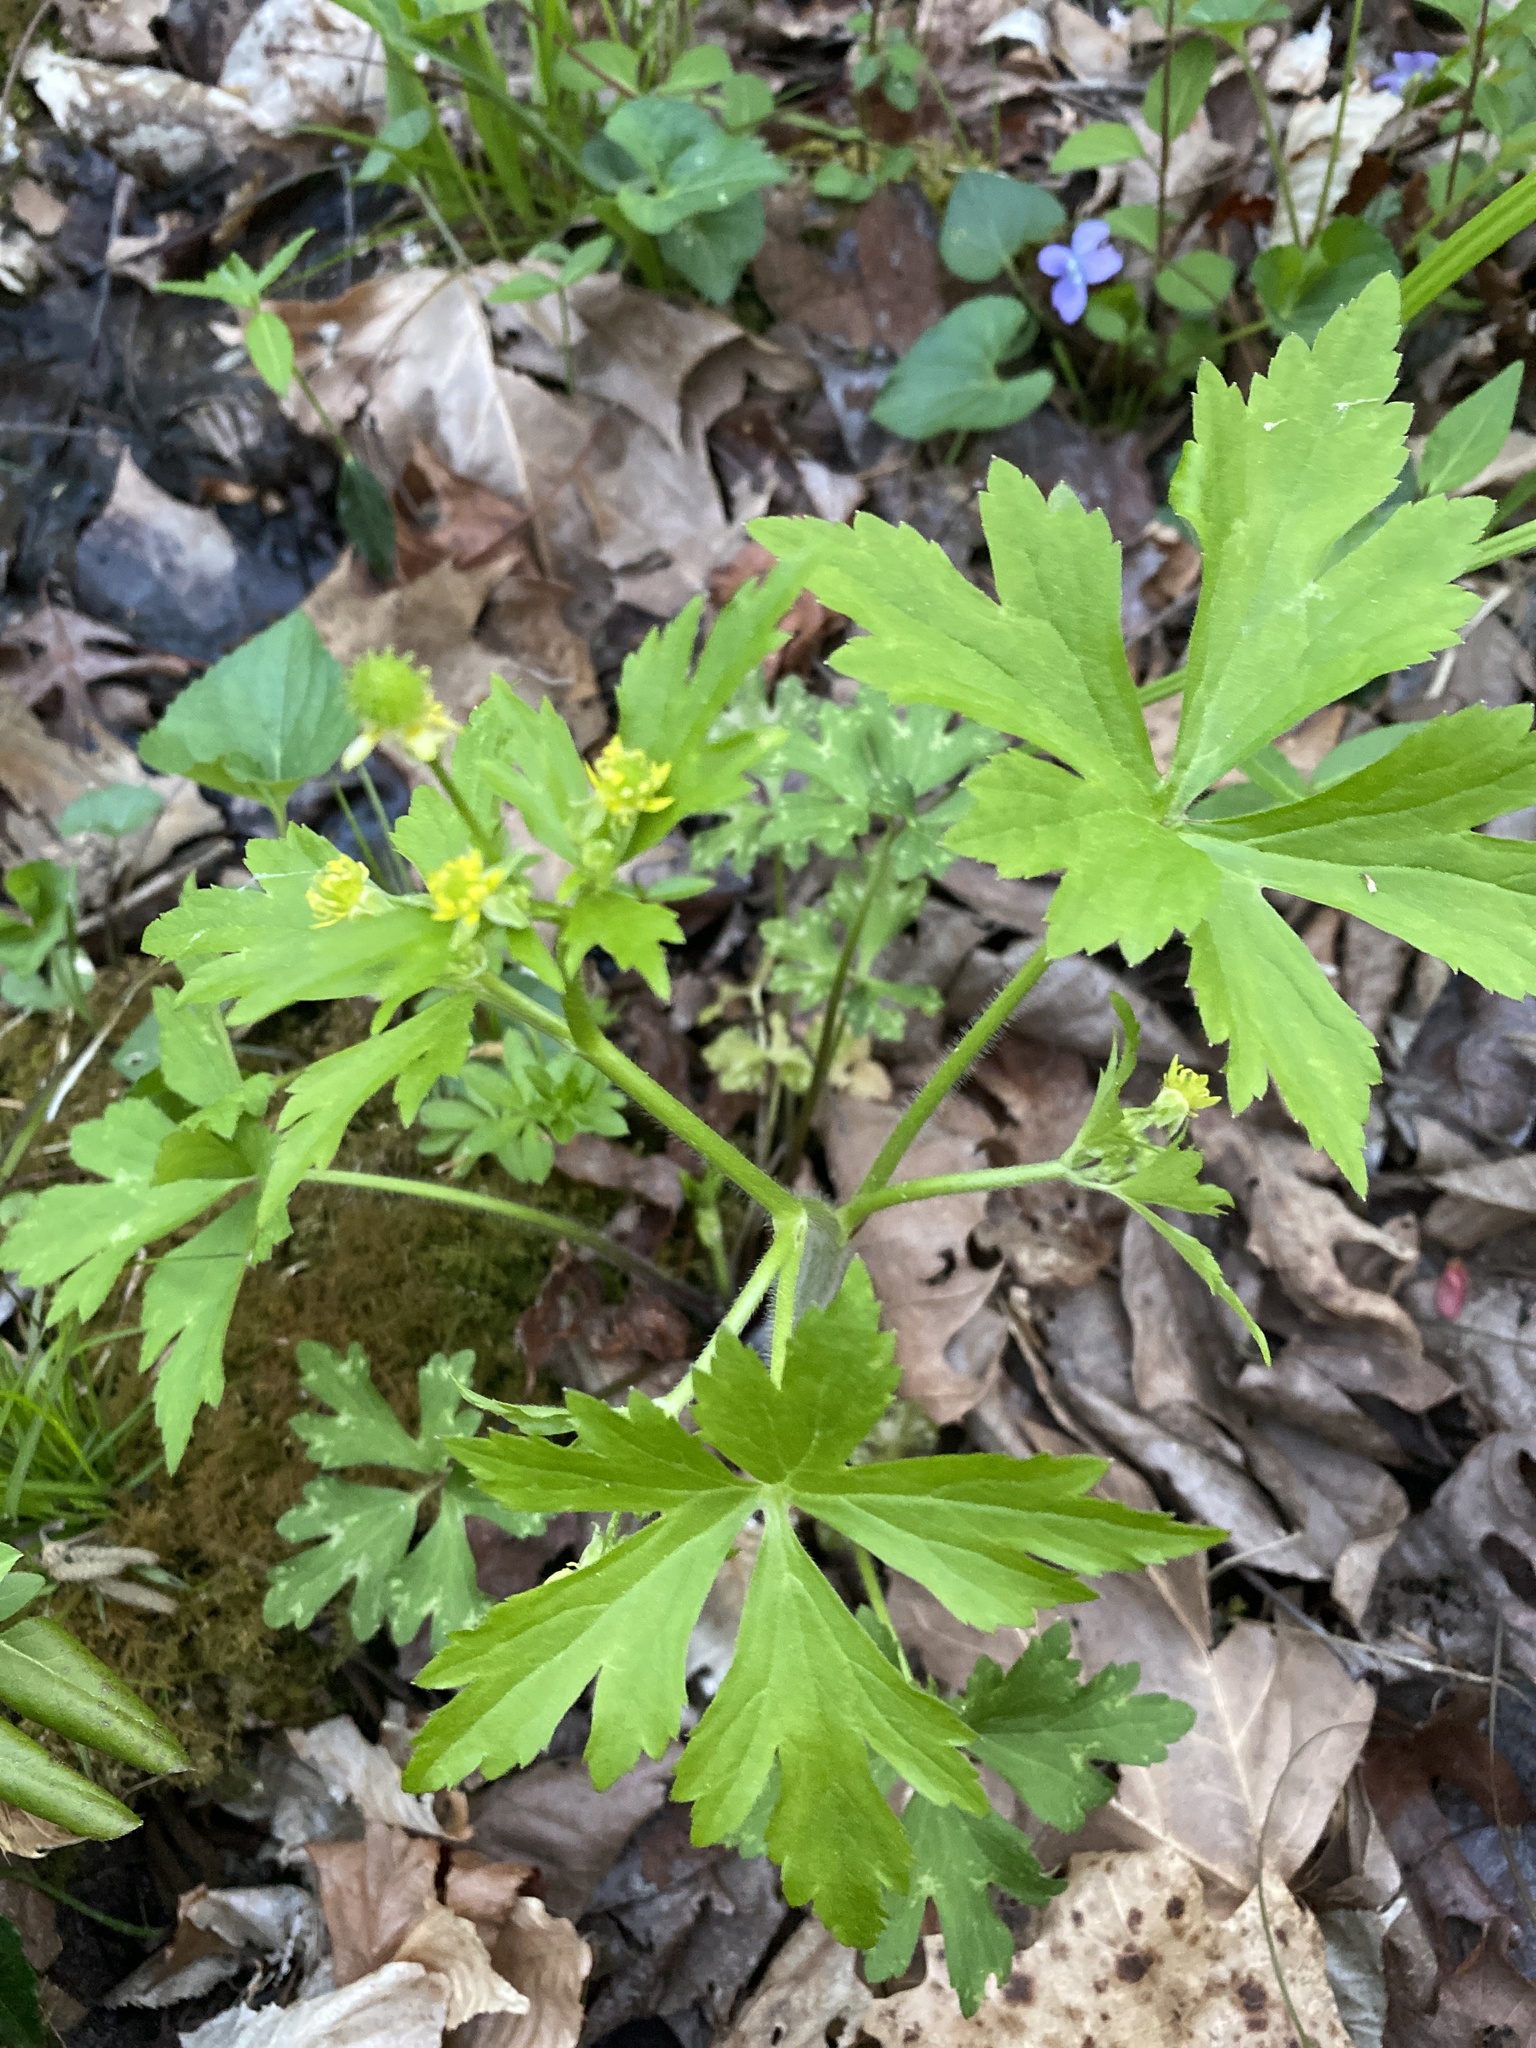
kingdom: Plantae
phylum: Tracheophyta
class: Magnoliopsida
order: Ranunculales
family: Ranunculaceae
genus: Ranunculus
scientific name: Ranunculus recurvatus
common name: Blisterwort
